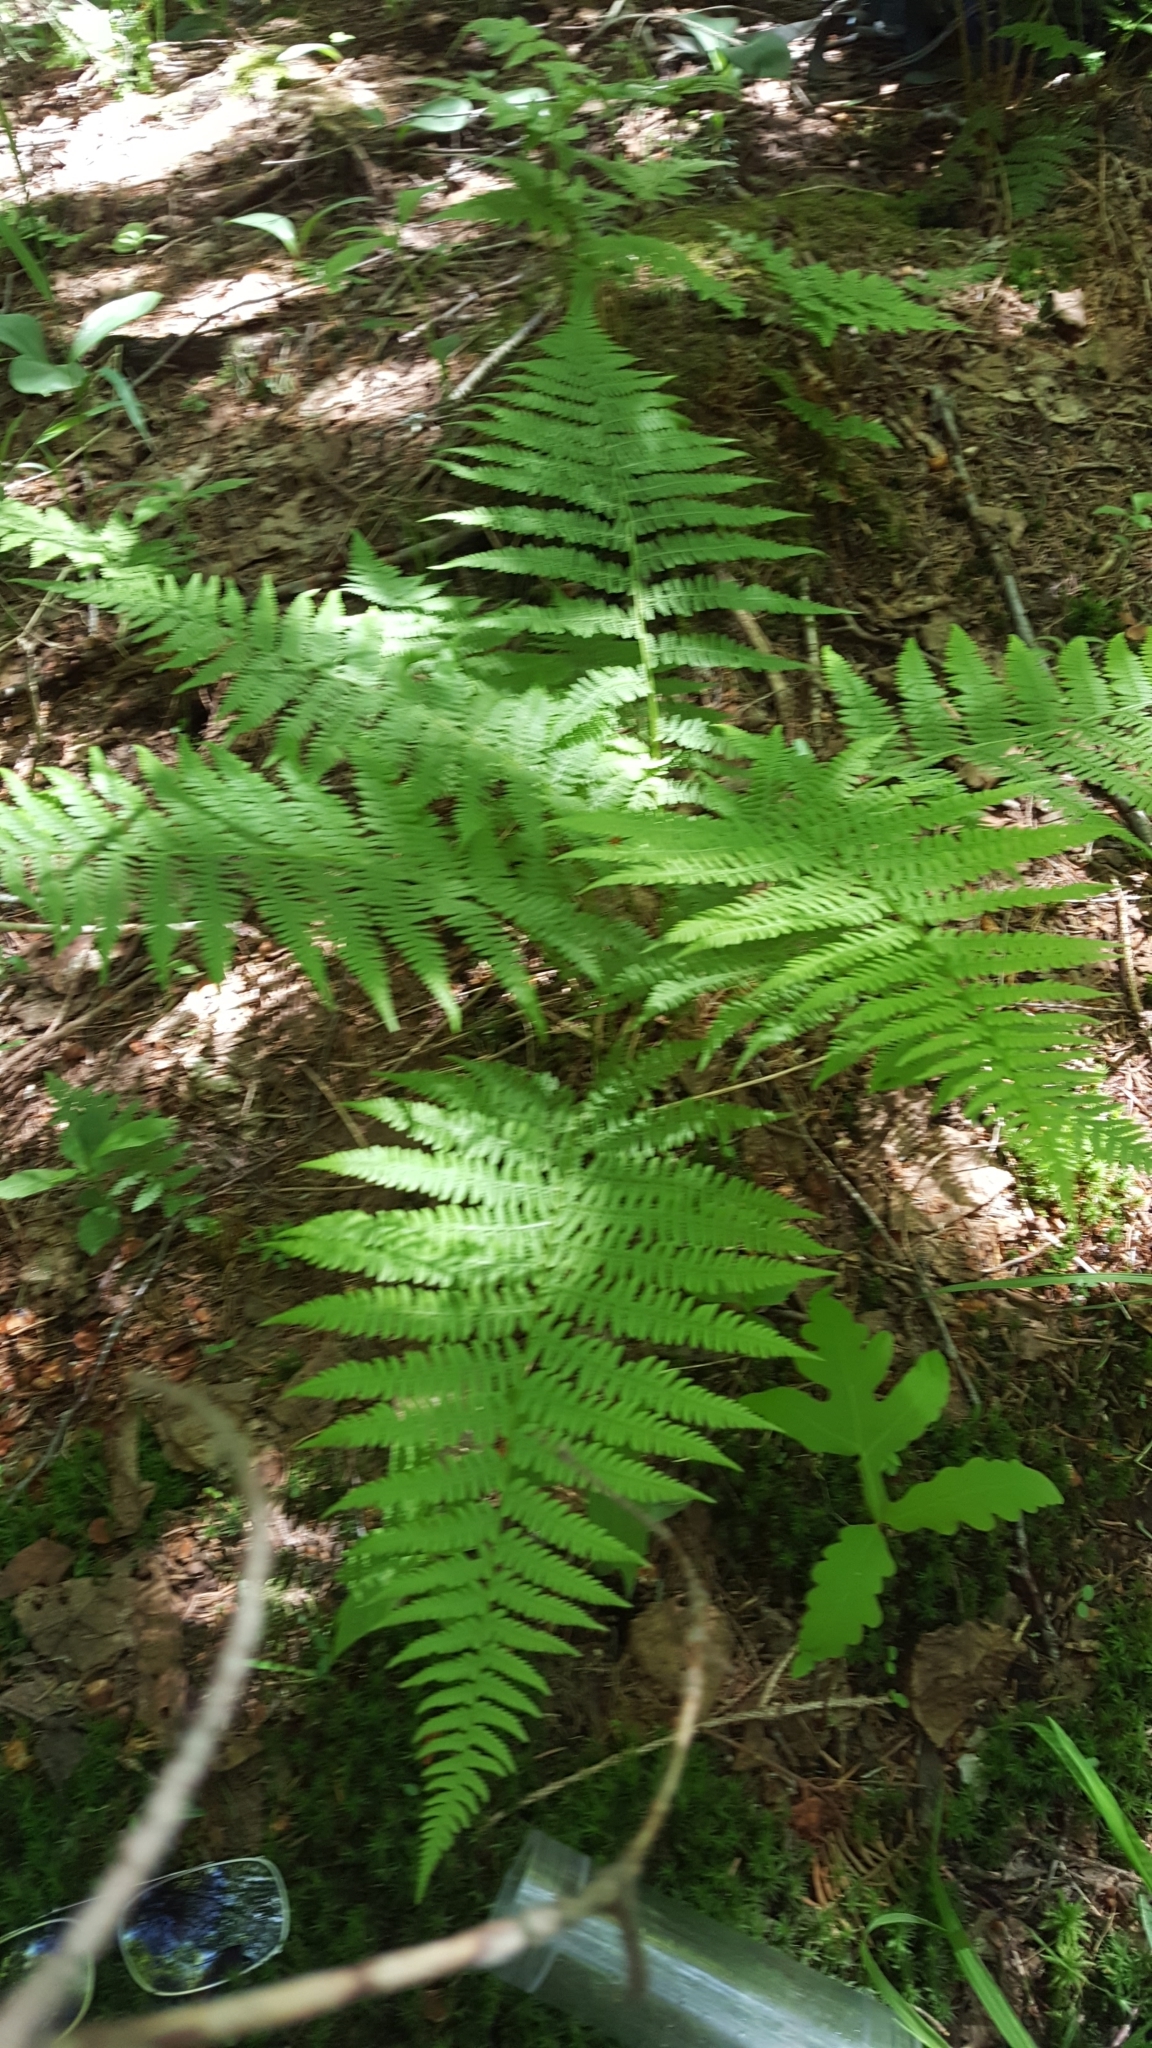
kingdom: Plantae
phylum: Tracheophyta
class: Polypodiopsida
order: Polypodiales
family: Athyriaceae
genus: Athyrium
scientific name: Athyrium angustum
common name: Northern lady fern
